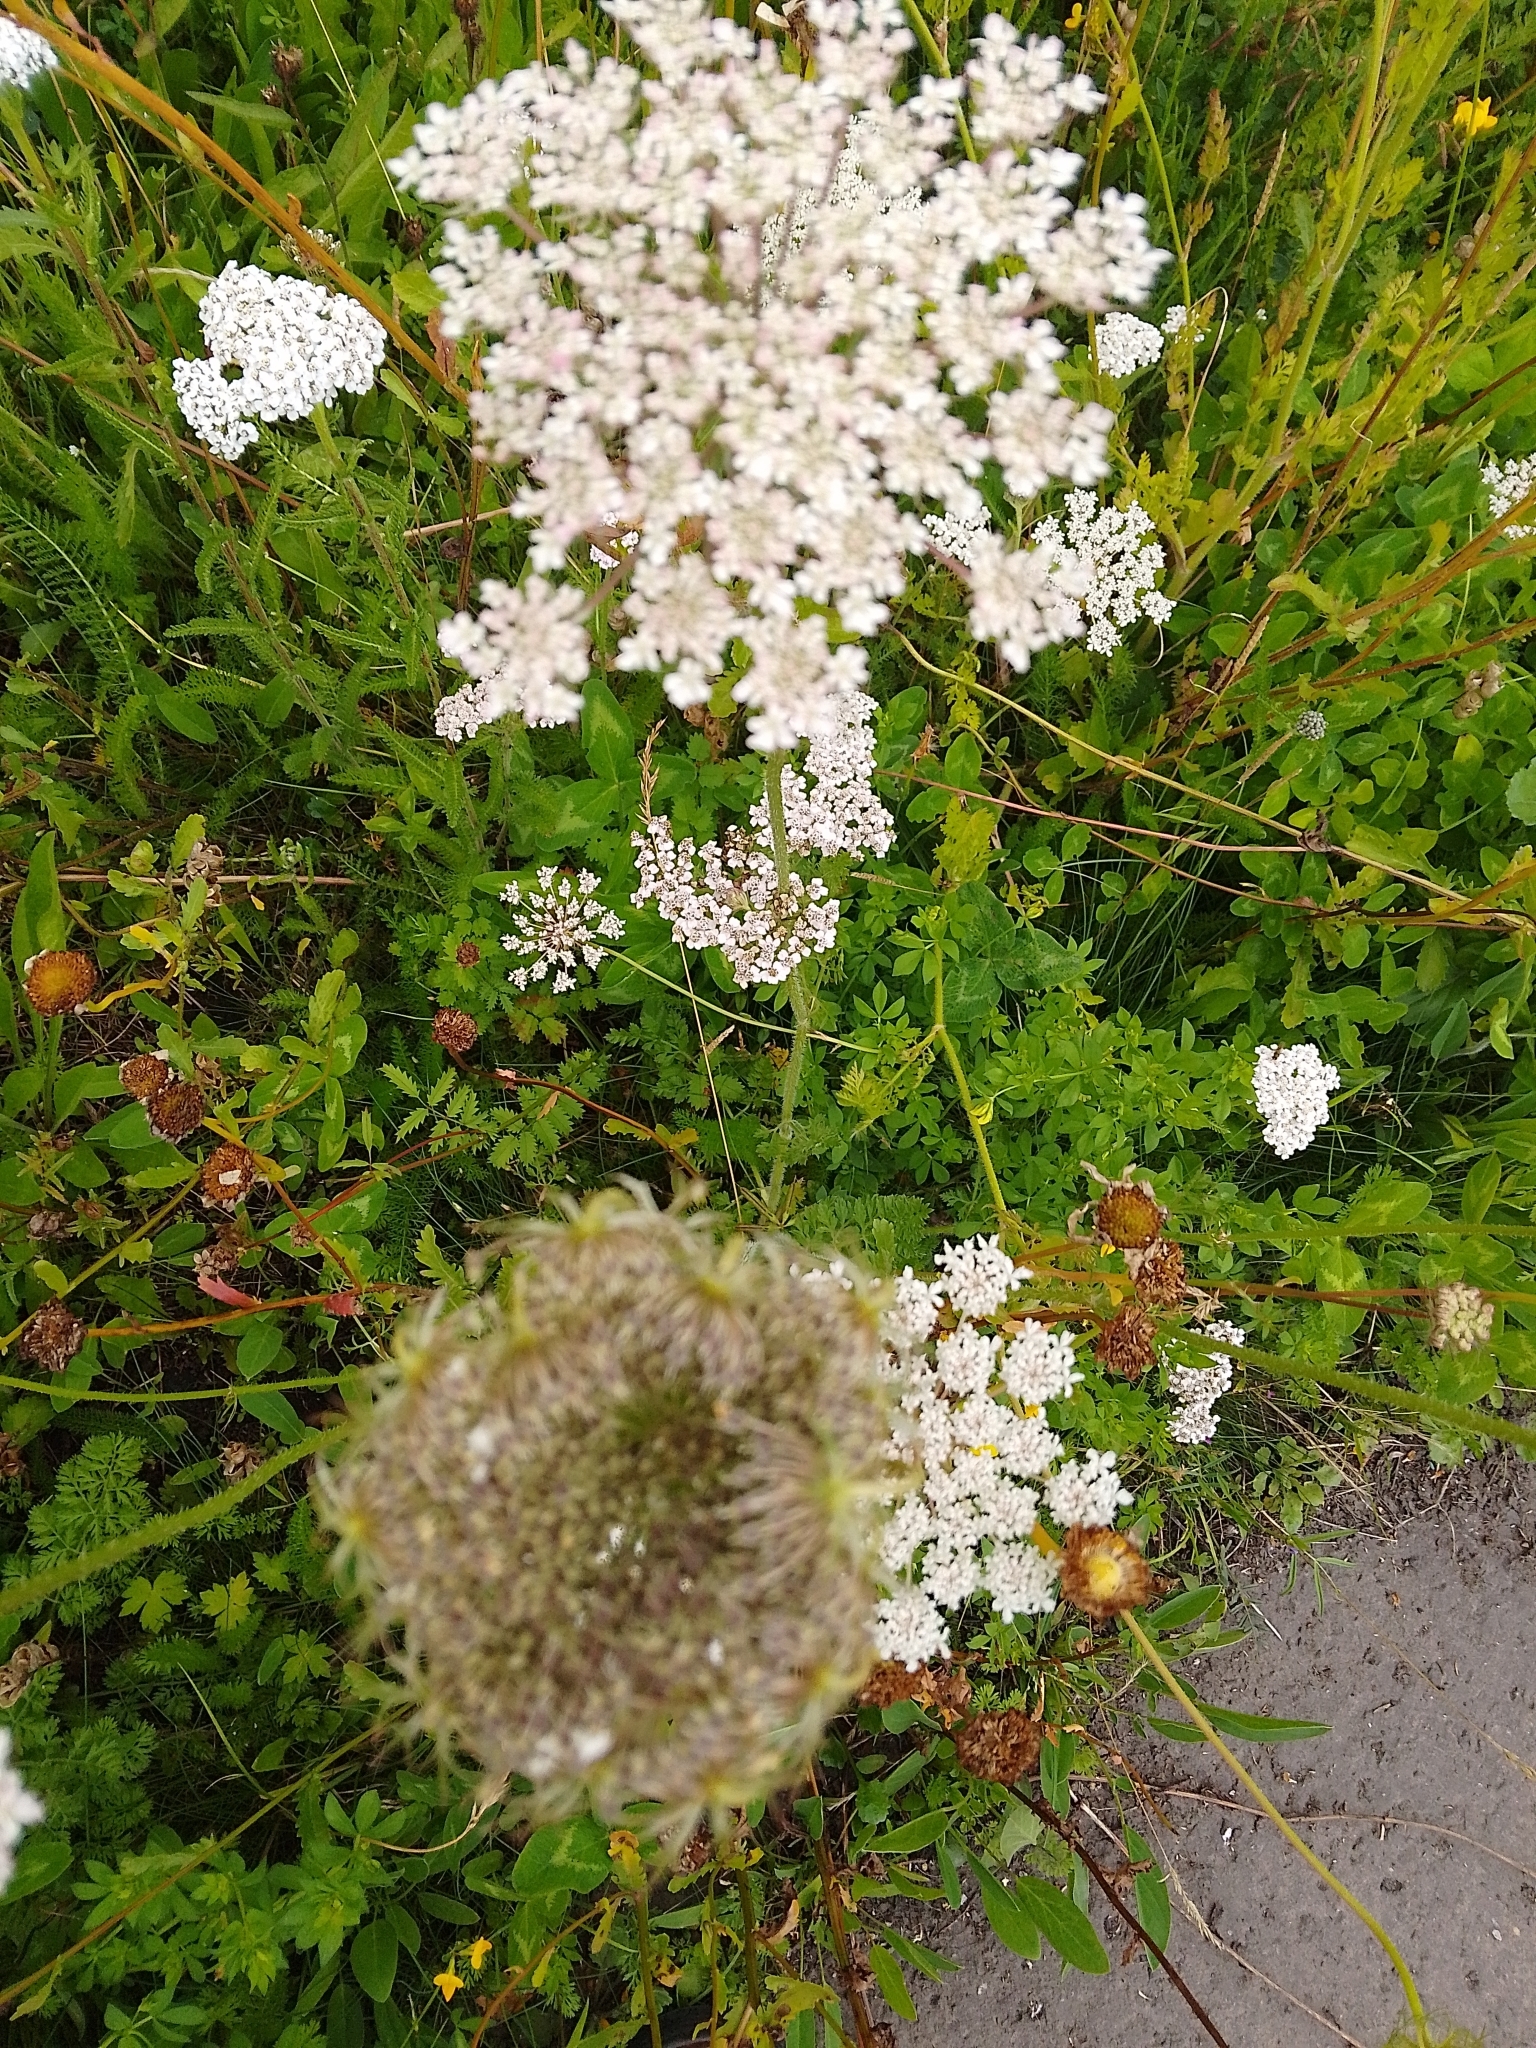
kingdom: Plantae
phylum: Tracheophyta
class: Magnoliopsida
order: Apiales
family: Apiaceae
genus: Daucus
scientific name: Daucus carota
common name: Wild carrot
